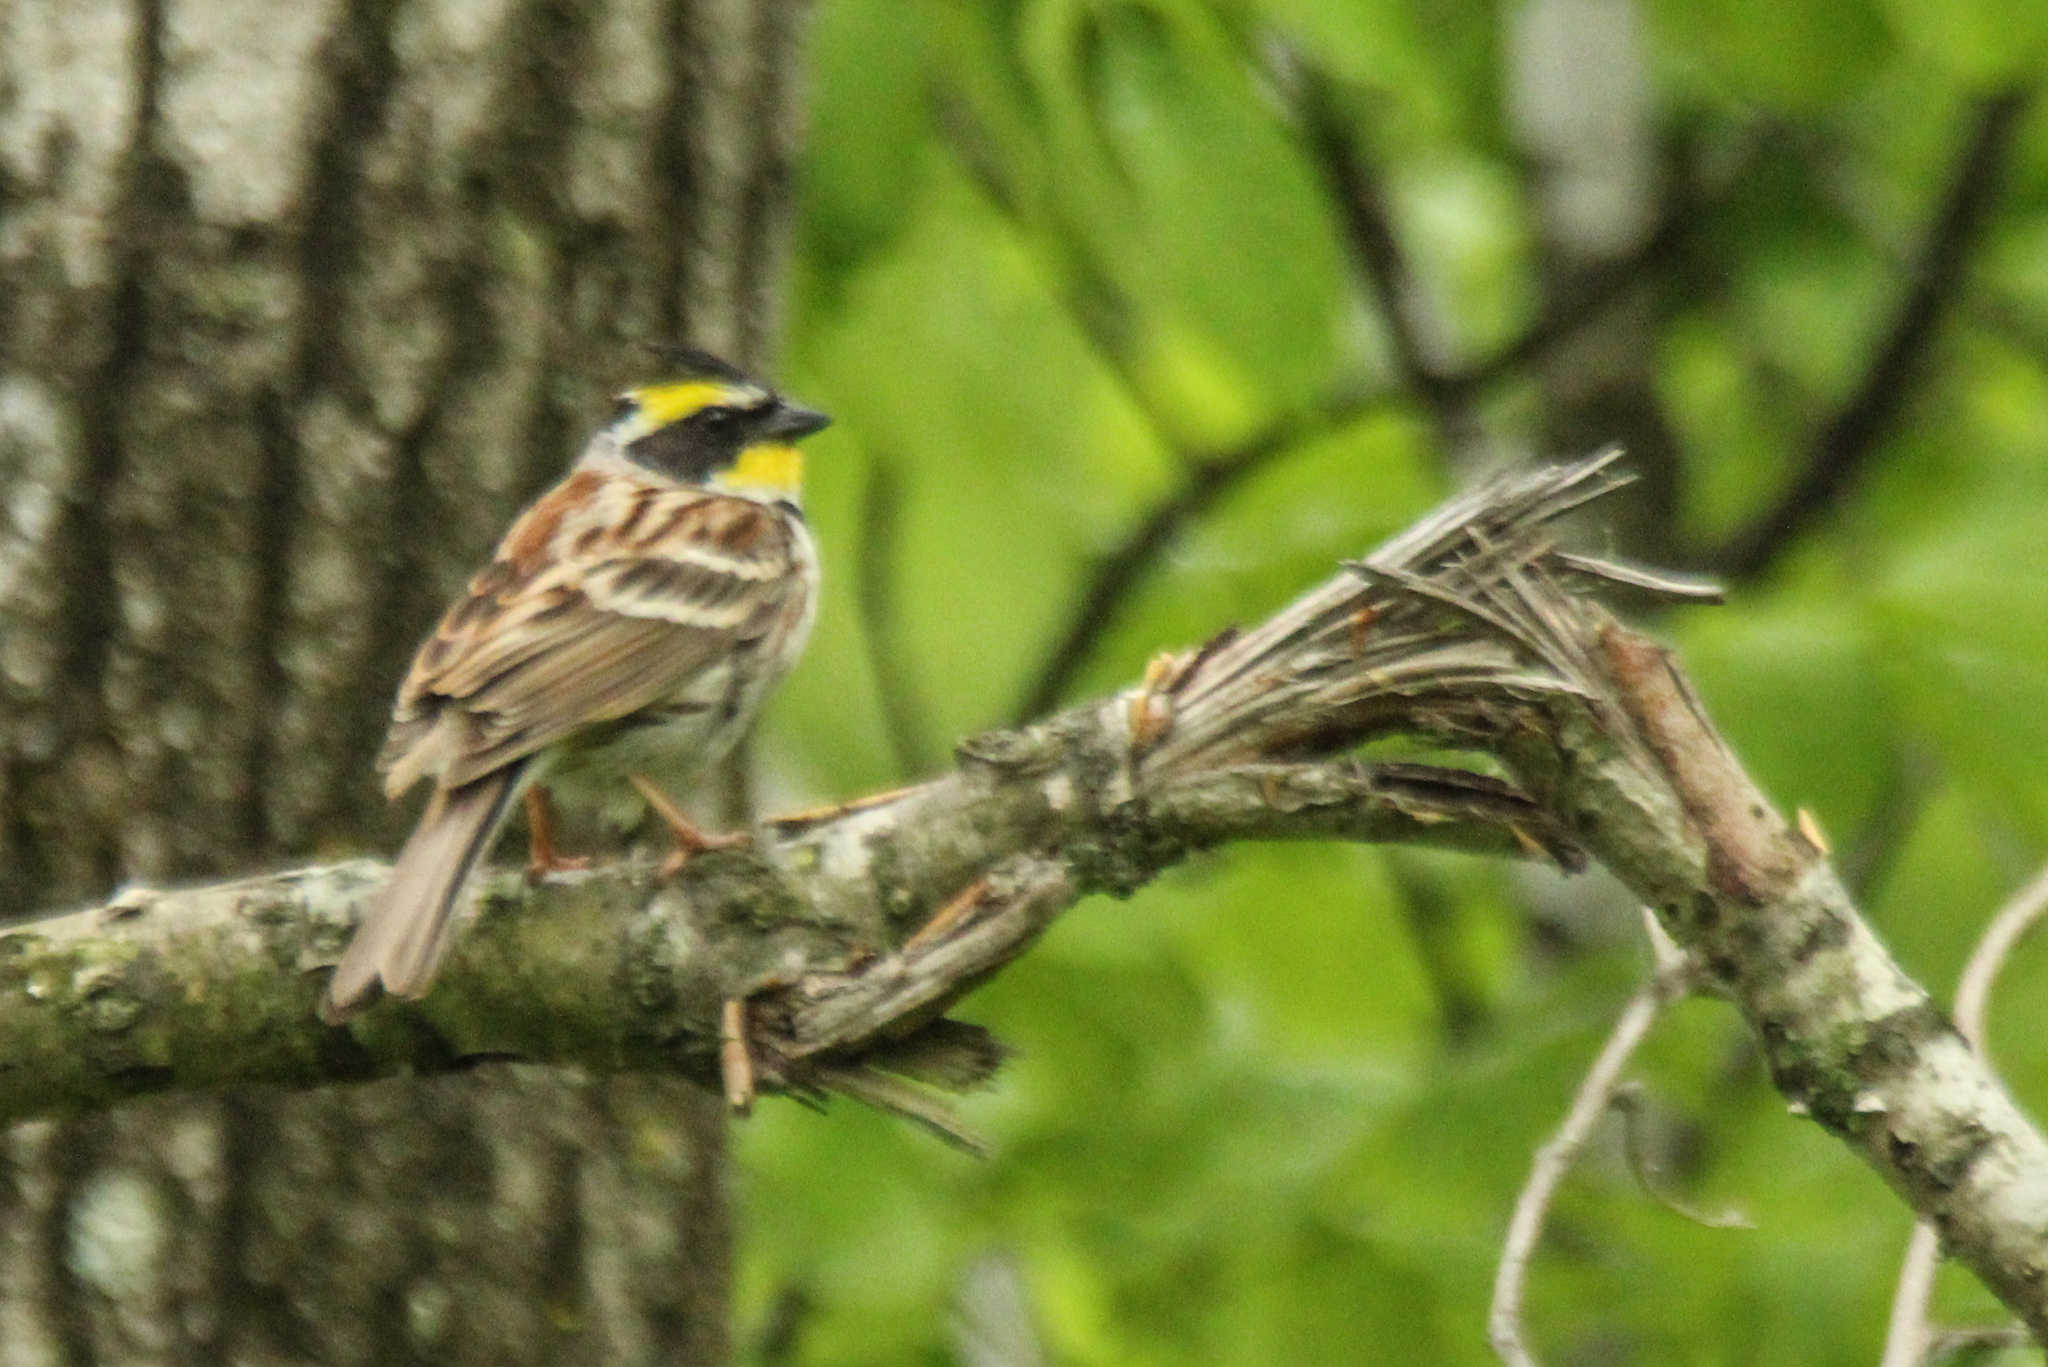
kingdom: Animalia
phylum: Chordata
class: Aves
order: Passeriformes
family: Emberizidae
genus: Emberiza
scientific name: Emberiza elegans
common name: Yellow-throated bunting
